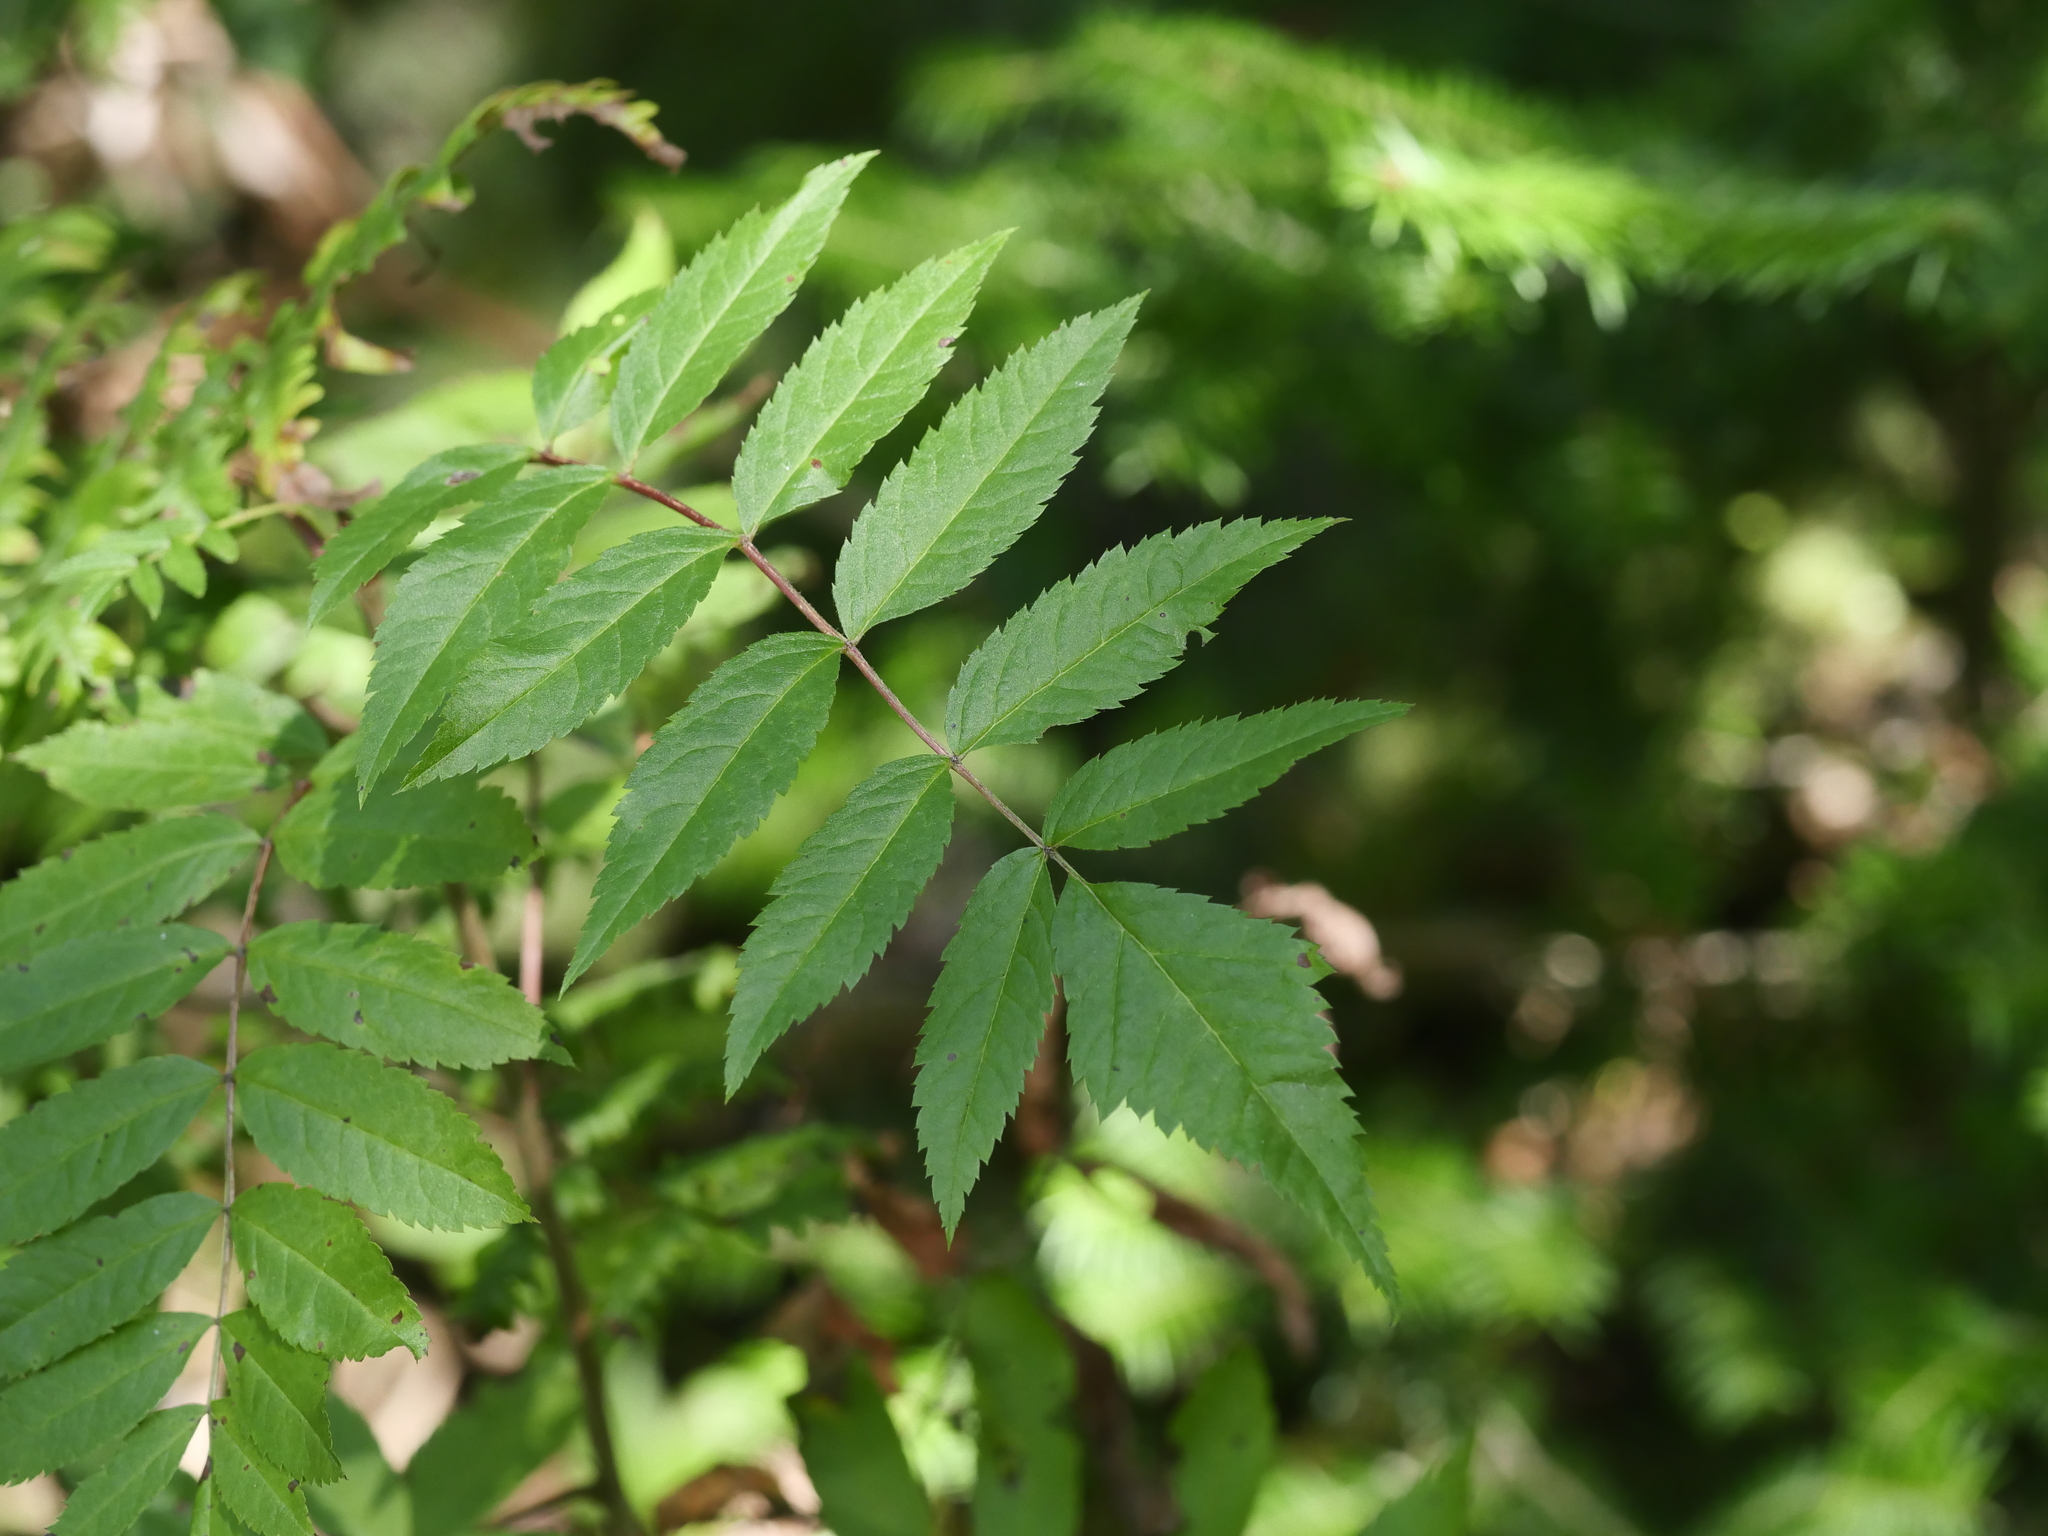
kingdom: Plantae
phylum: Tracheophyta
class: Magnoliopsida
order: Rosales
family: Rosaceae
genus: Sorbus
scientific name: Sorbus americana
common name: American mountain-ash
